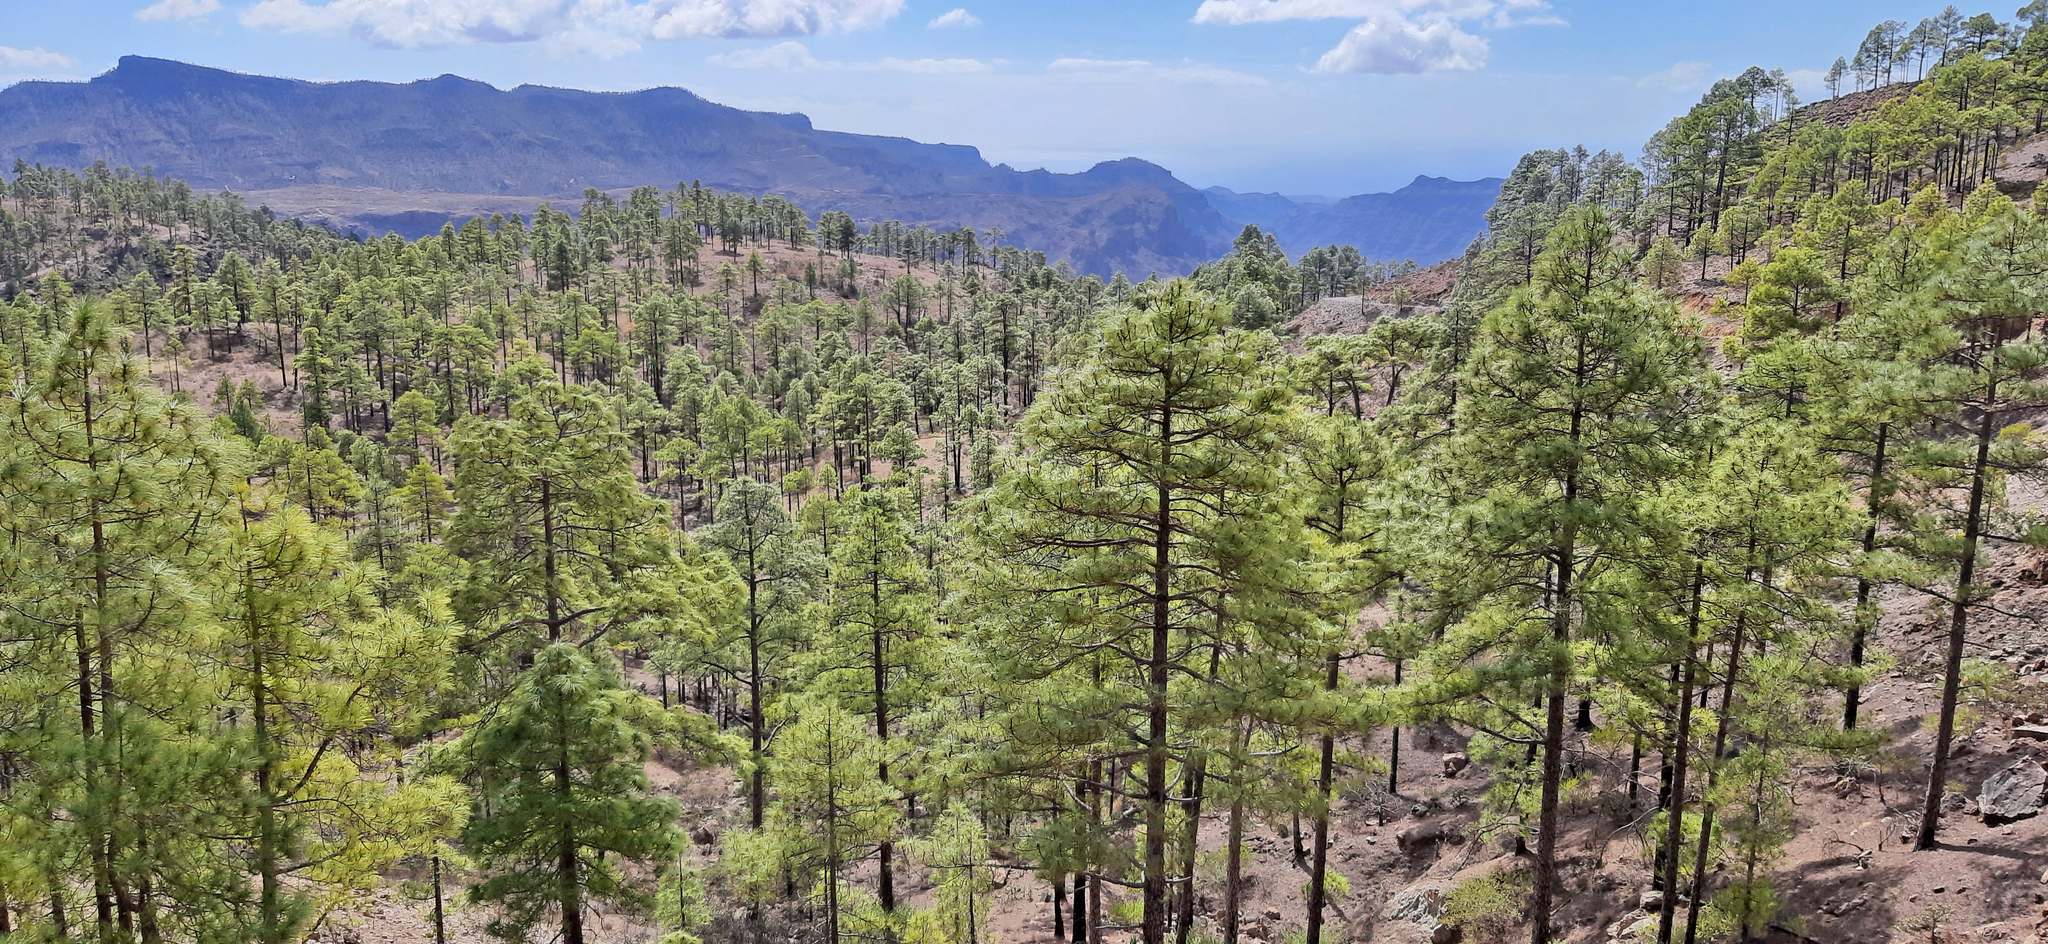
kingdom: Plantae
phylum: Tracheophyta
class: Pinopsida
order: Pinales
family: Pinaceae
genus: Pinus
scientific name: Pinus canariensis
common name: Canary islands pine
